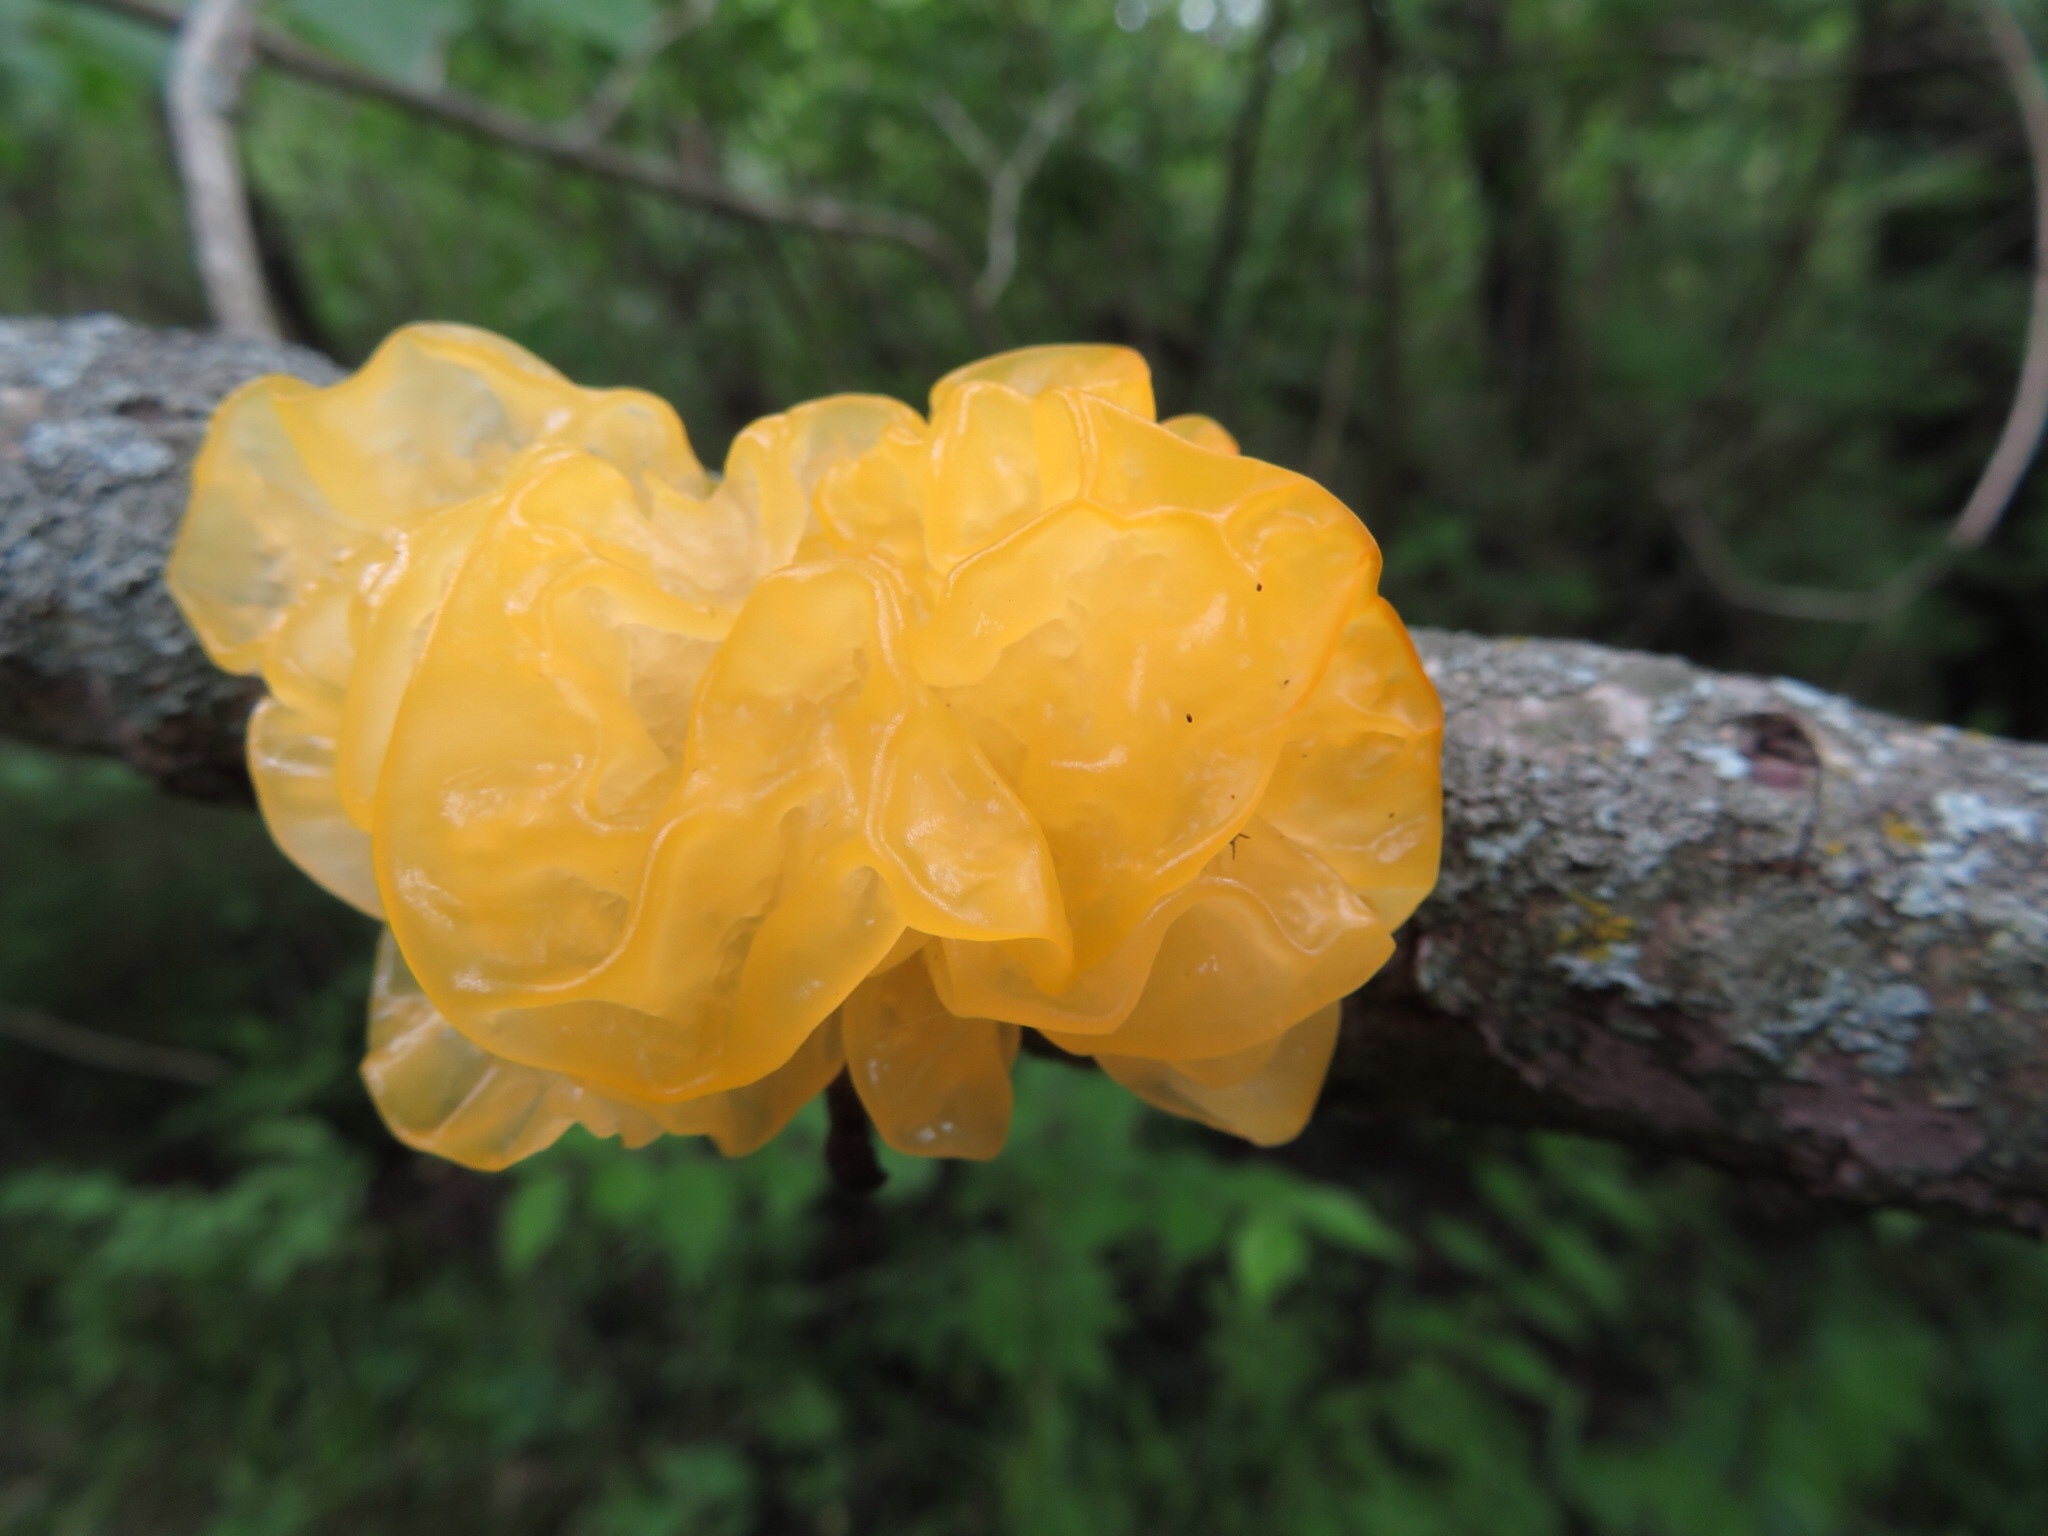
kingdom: Fungi
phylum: Basidiomycota
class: Tremellomycetes
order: Tremellales
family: Tremellaceae
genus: Tremella
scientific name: Tremella mesenterica
